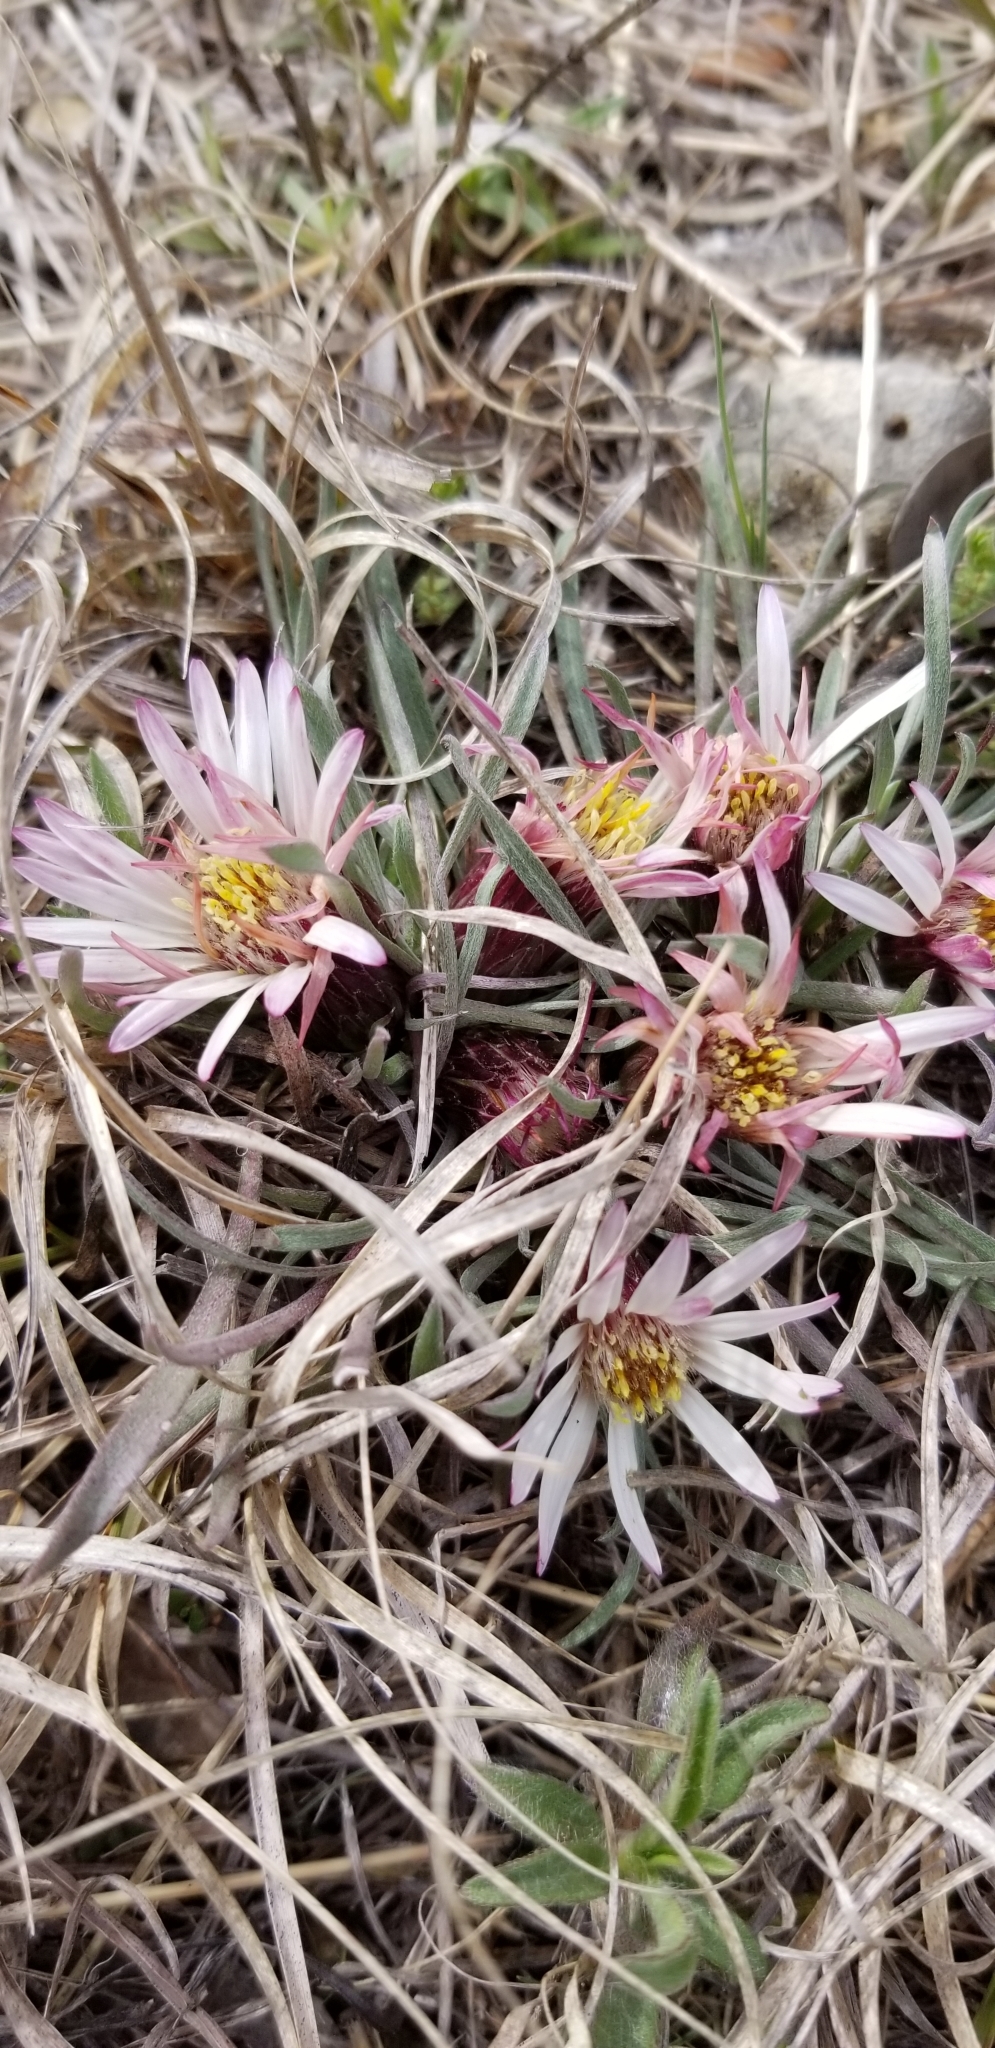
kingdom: Plantae
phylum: Tracheophyta
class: Magnoliopsida
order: Asterales
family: Asteraceae
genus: Townsendia
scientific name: Townsendia exscapa
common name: Dwarf townsendia
